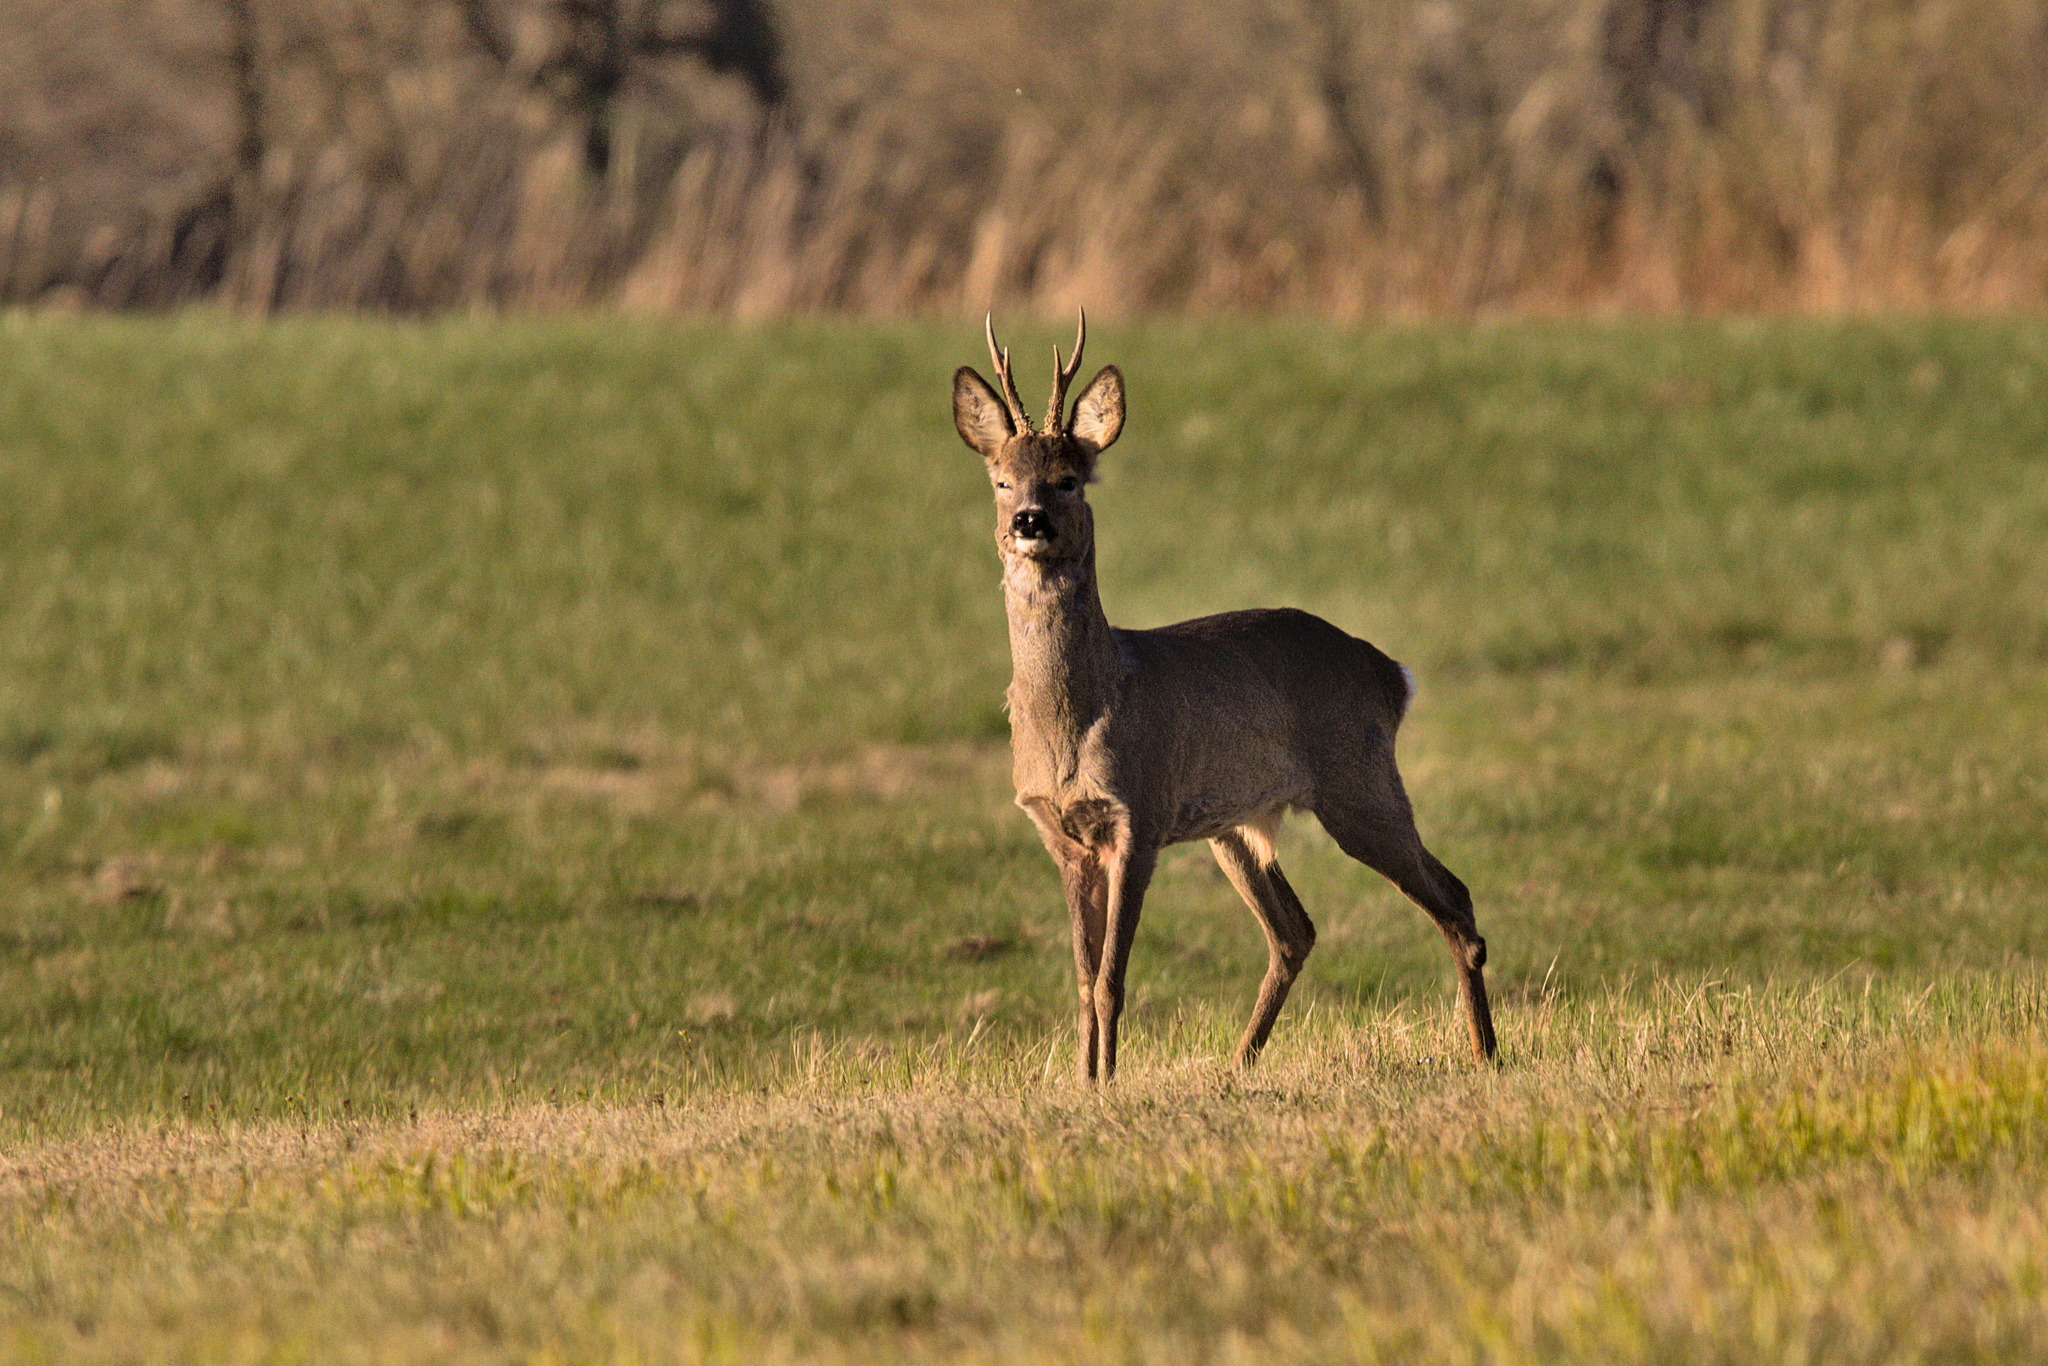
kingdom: Animalia
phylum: Chordata
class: Mammalia
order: Artiodactyla
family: Cervidae
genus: Capreolus
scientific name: Capreolus capreolus
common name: Western roe deer
